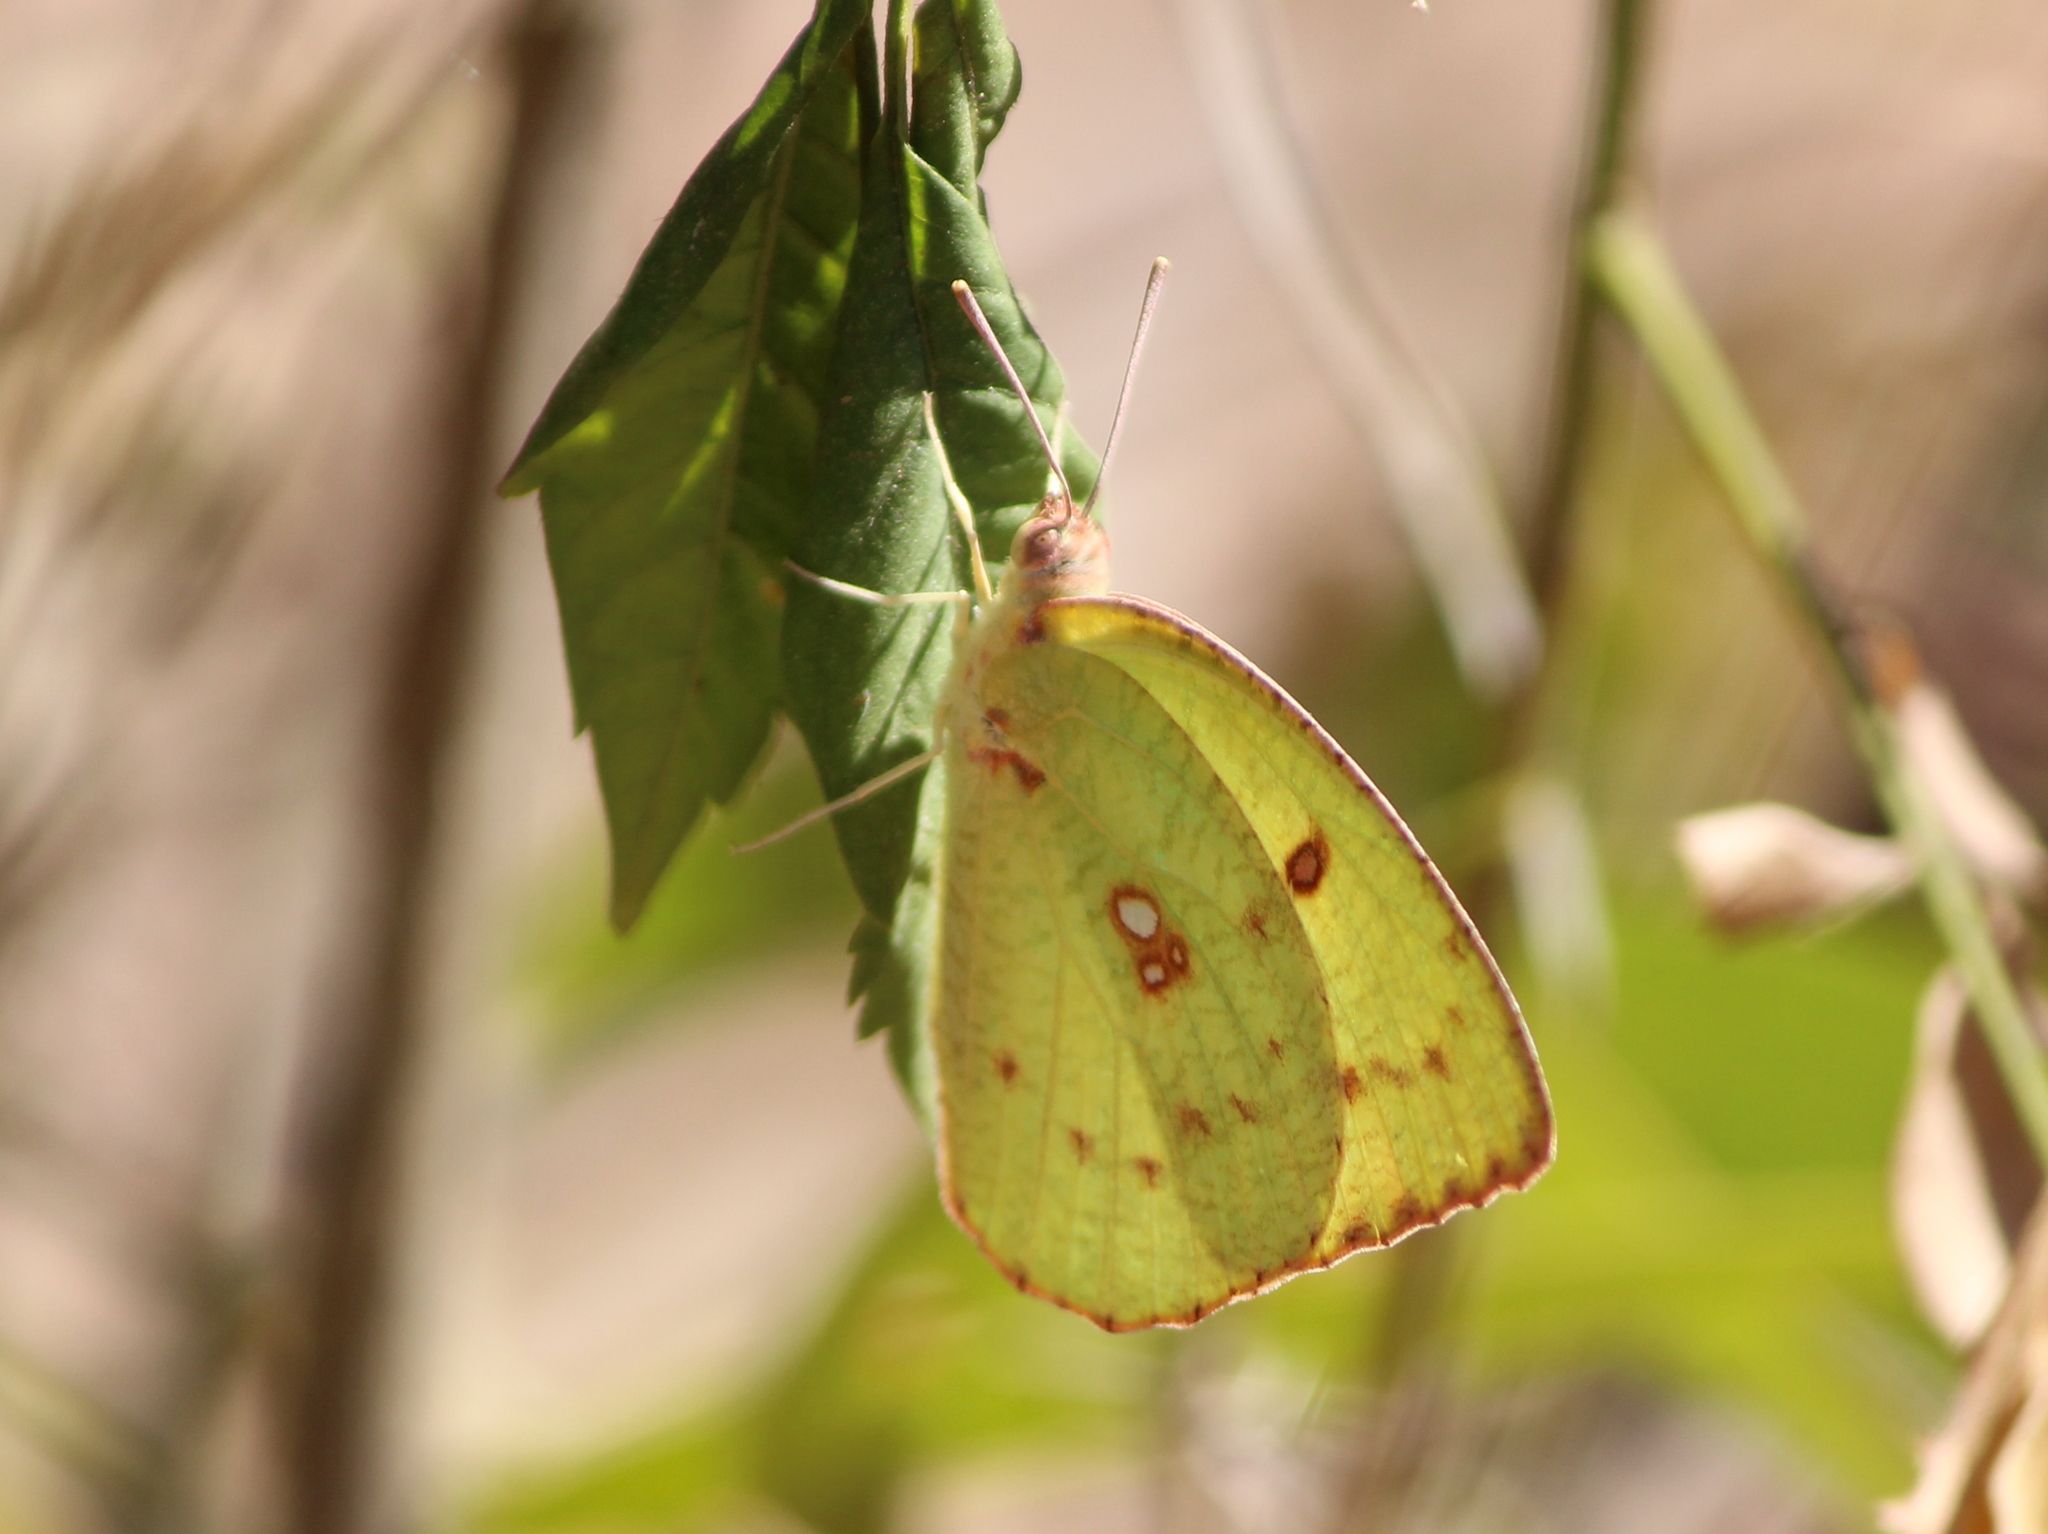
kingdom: Animalia
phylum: Arthropoda
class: Insecta
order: Lepidoptera
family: Pieridae
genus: Catopsilia
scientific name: Catopsilia pyranthe
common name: Mottled emigrant
